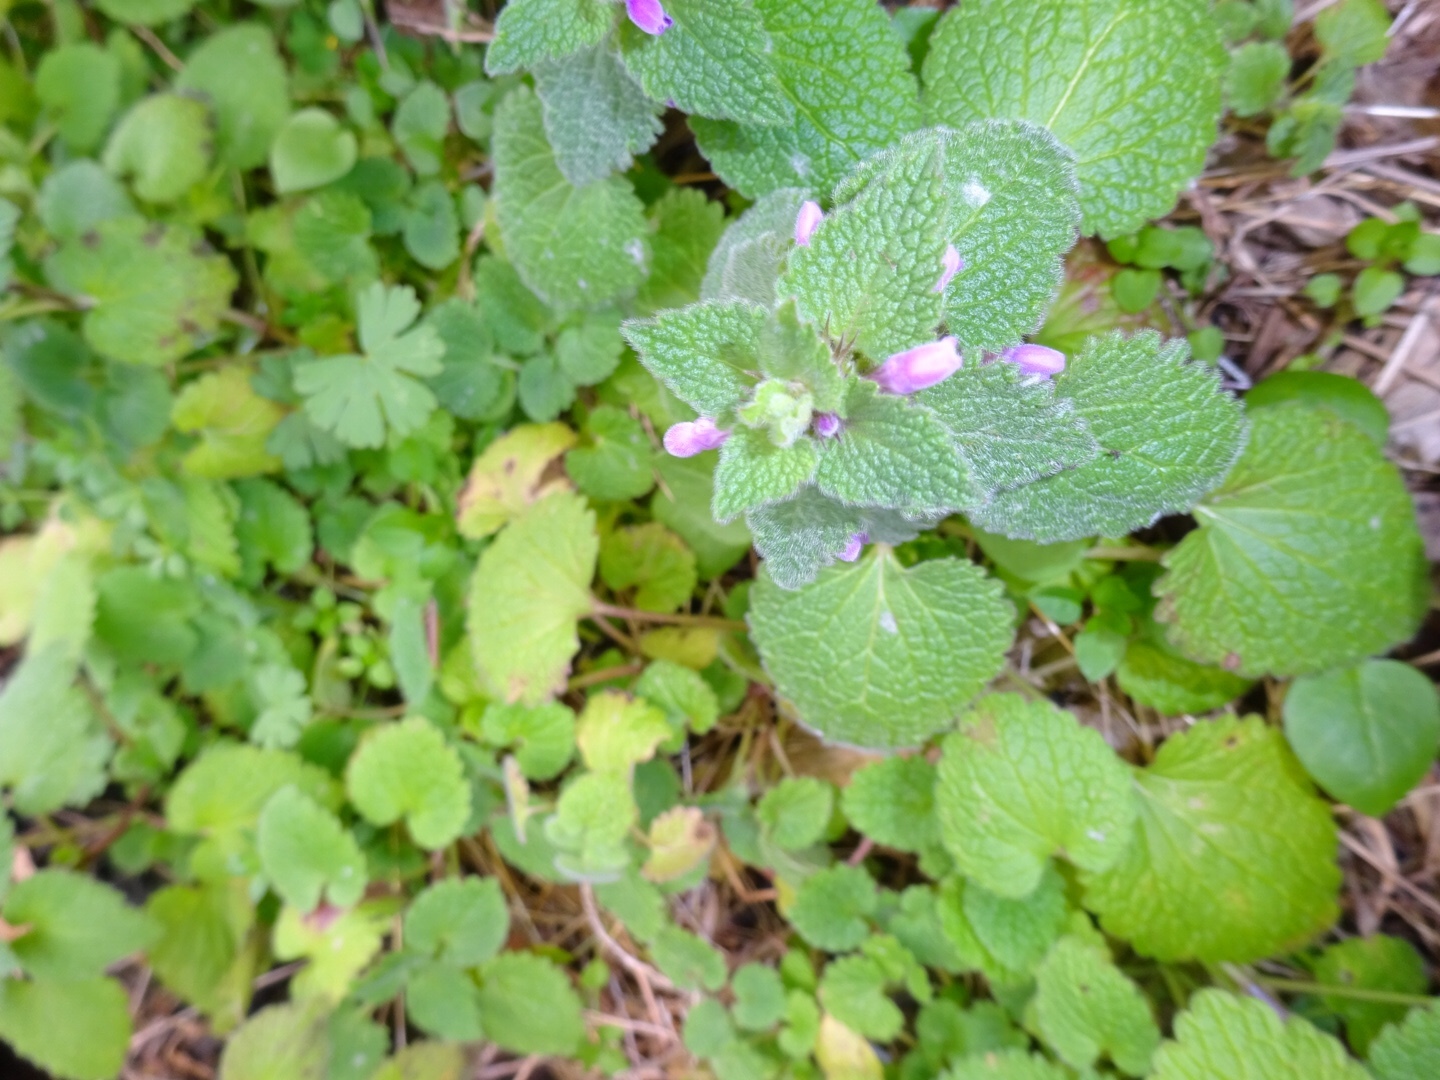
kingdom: Plantae
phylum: Tracheophyta
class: Magnoliopsida
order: Lamiales
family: Lamiaceae
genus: Lamium
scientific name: Lamium purpureum
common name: Red dead-nettle
